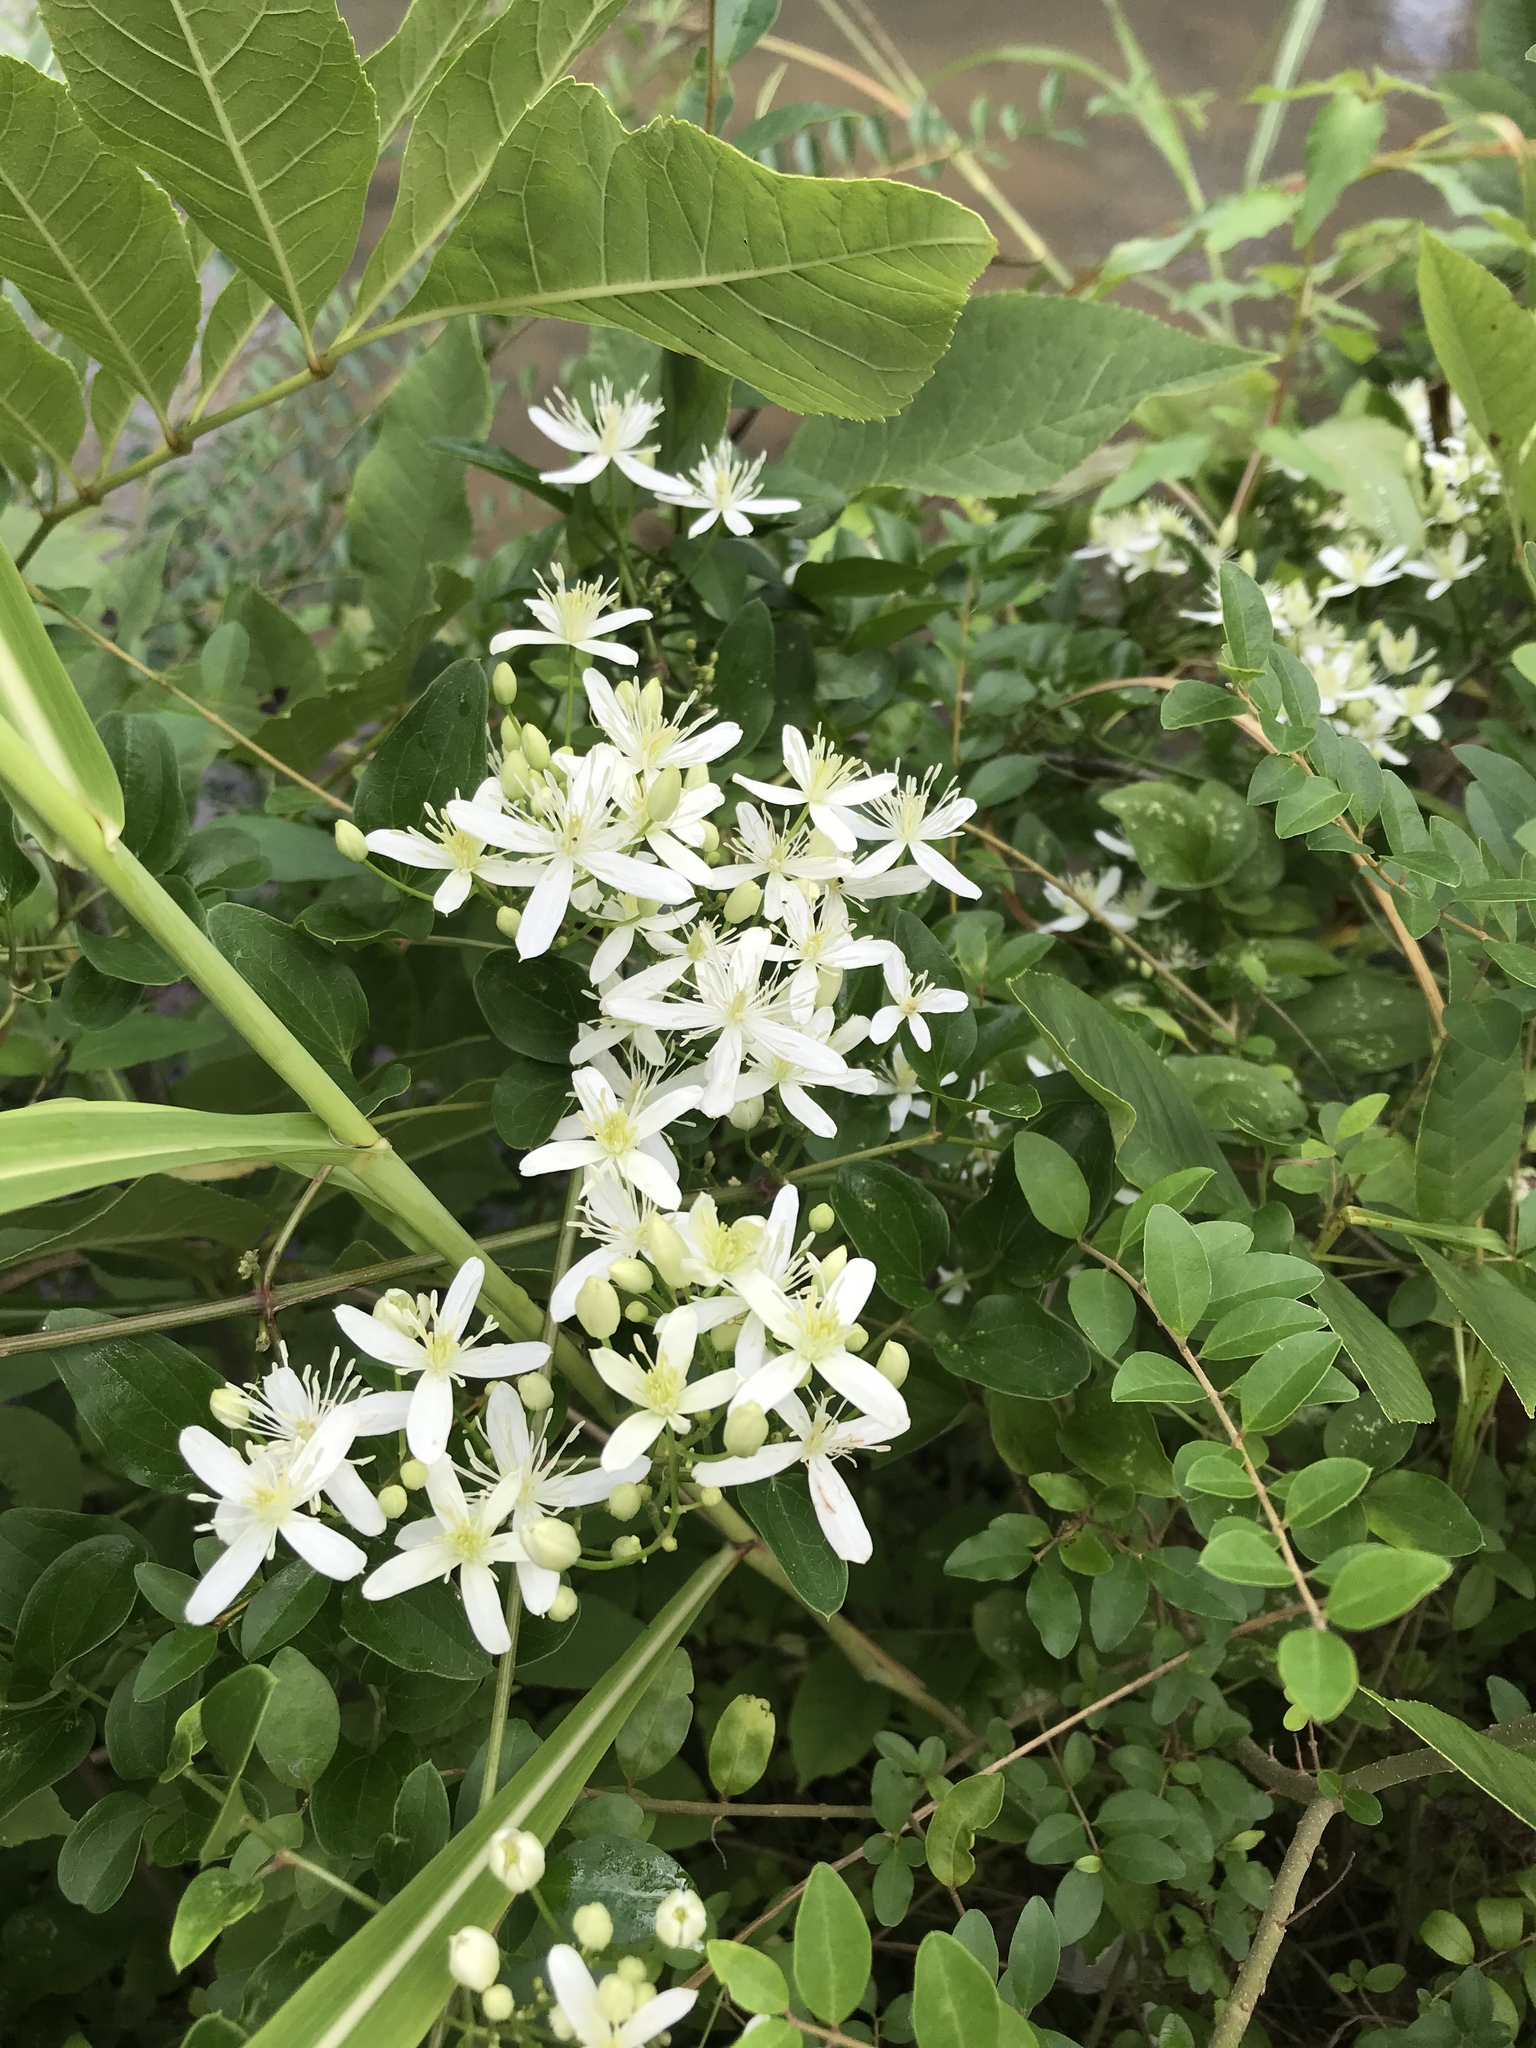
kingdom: Plantae
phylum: Tracheophyta
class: Magnoliopsida
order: Ranunculales
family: Ranunculaceae
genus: Clematis
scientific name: Clematis terniflora
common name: Sweet autumn clematis
